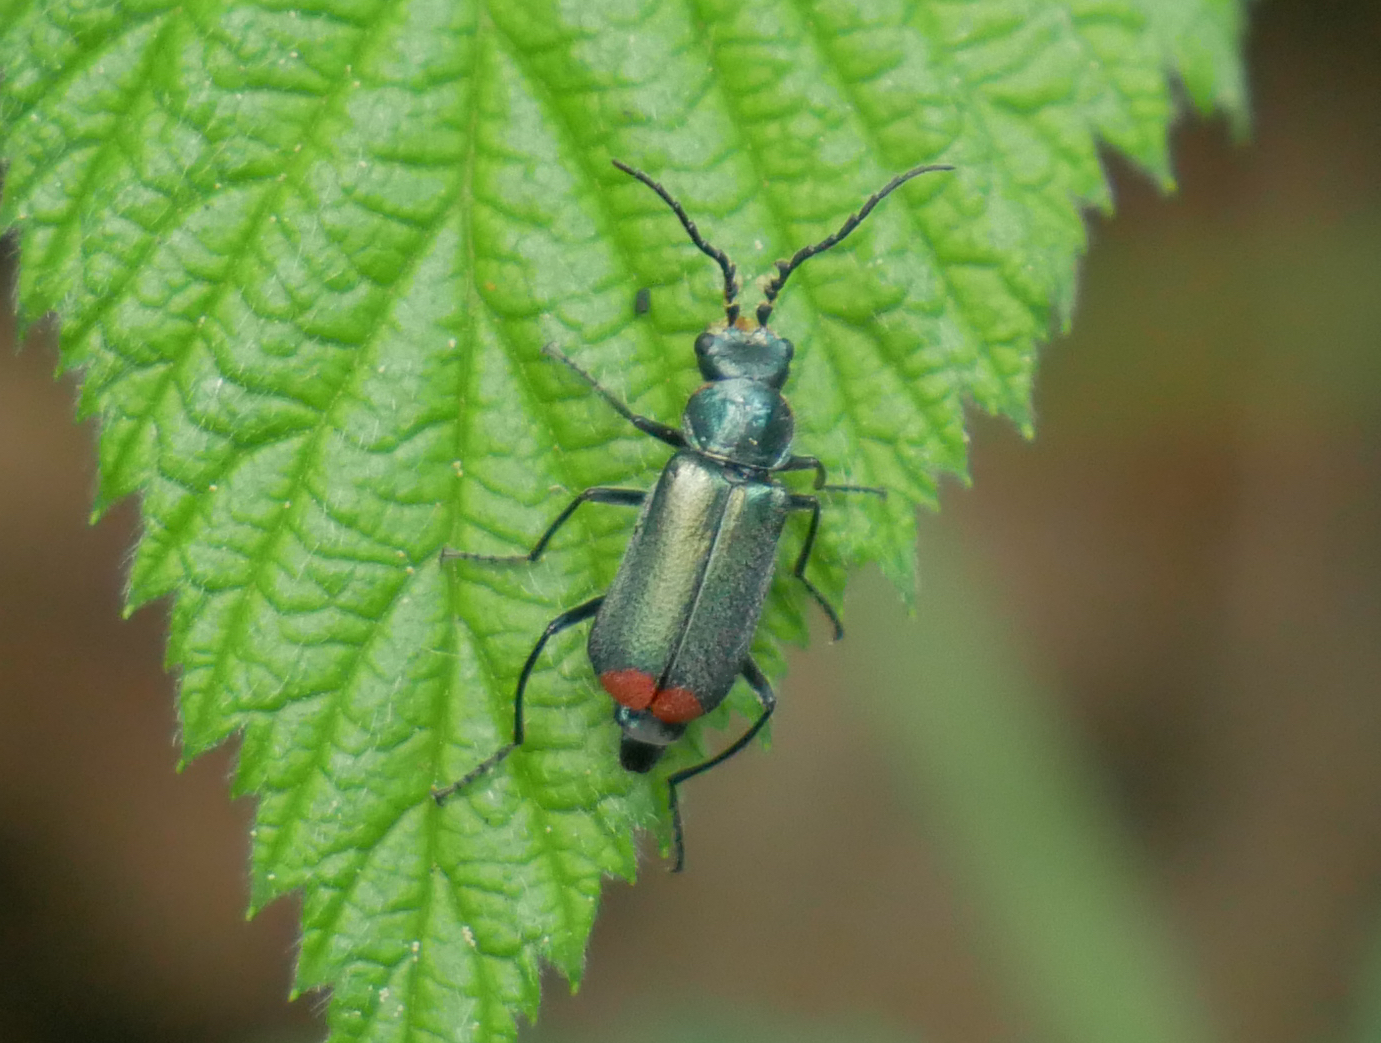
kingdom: Animalia
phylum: Arthropoda
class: Insecta
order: Coleoptera
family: Melyridae
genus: Malachius
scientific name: Malachius bipustulatus
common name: Malachite beetle
